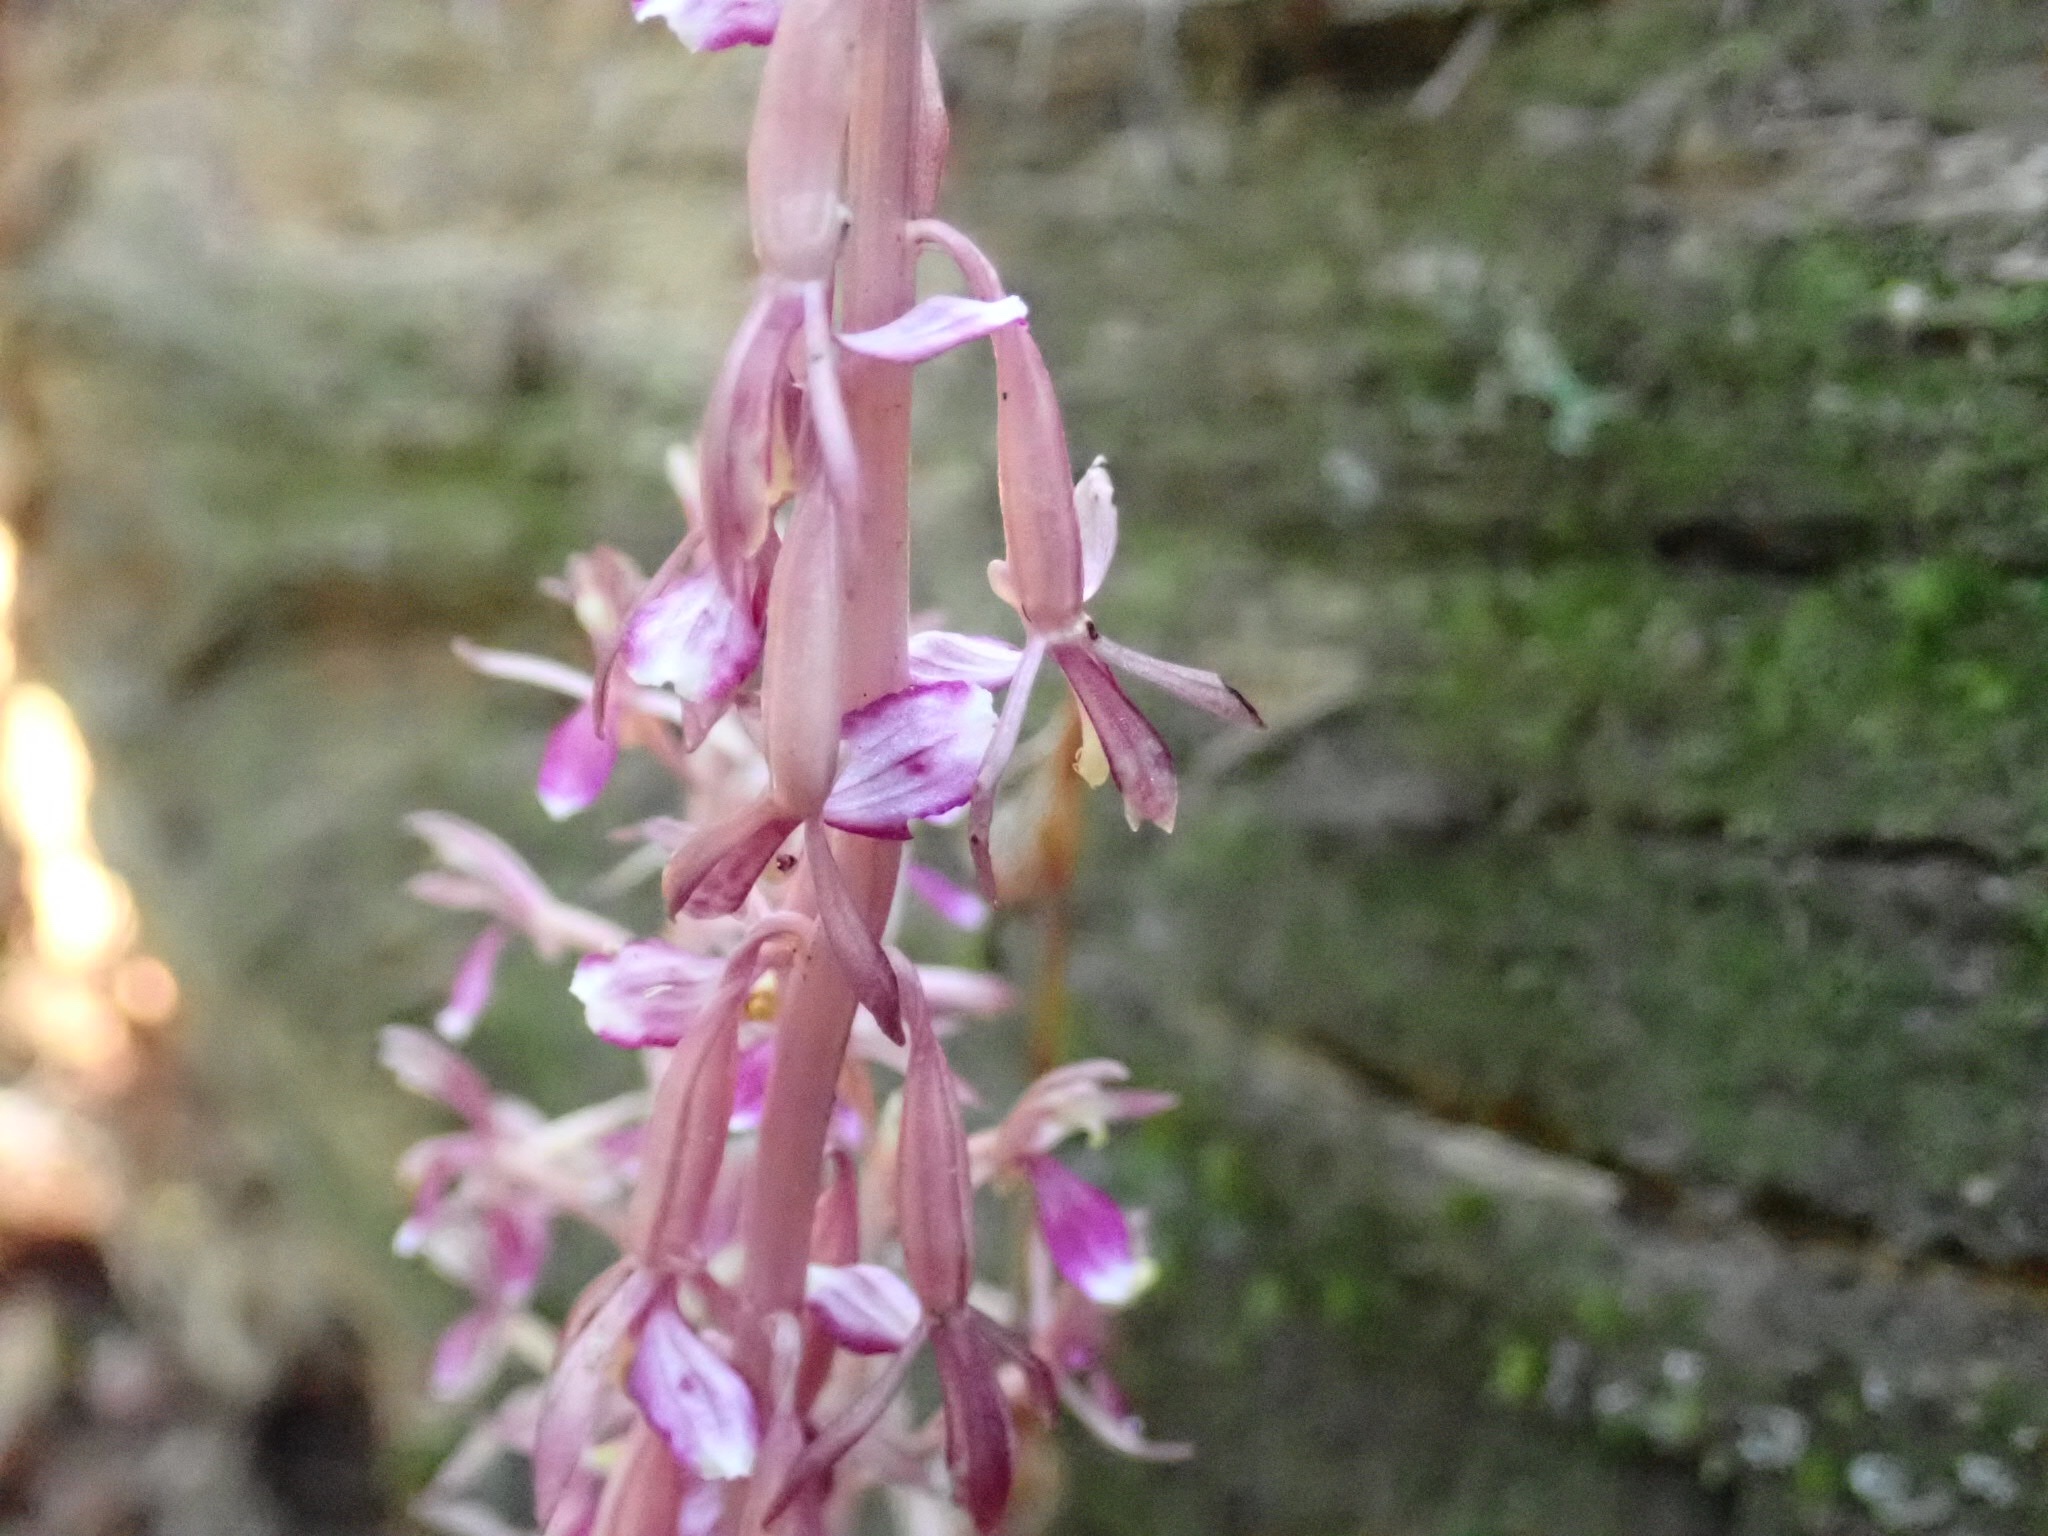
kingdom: Plantae
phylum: Tracheophyta
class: Liliopsida
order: Asparagales
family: Orchidaceae
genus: Corallorhiza
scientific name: Corallorhiza mertensiana
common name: Pacific coralroot
